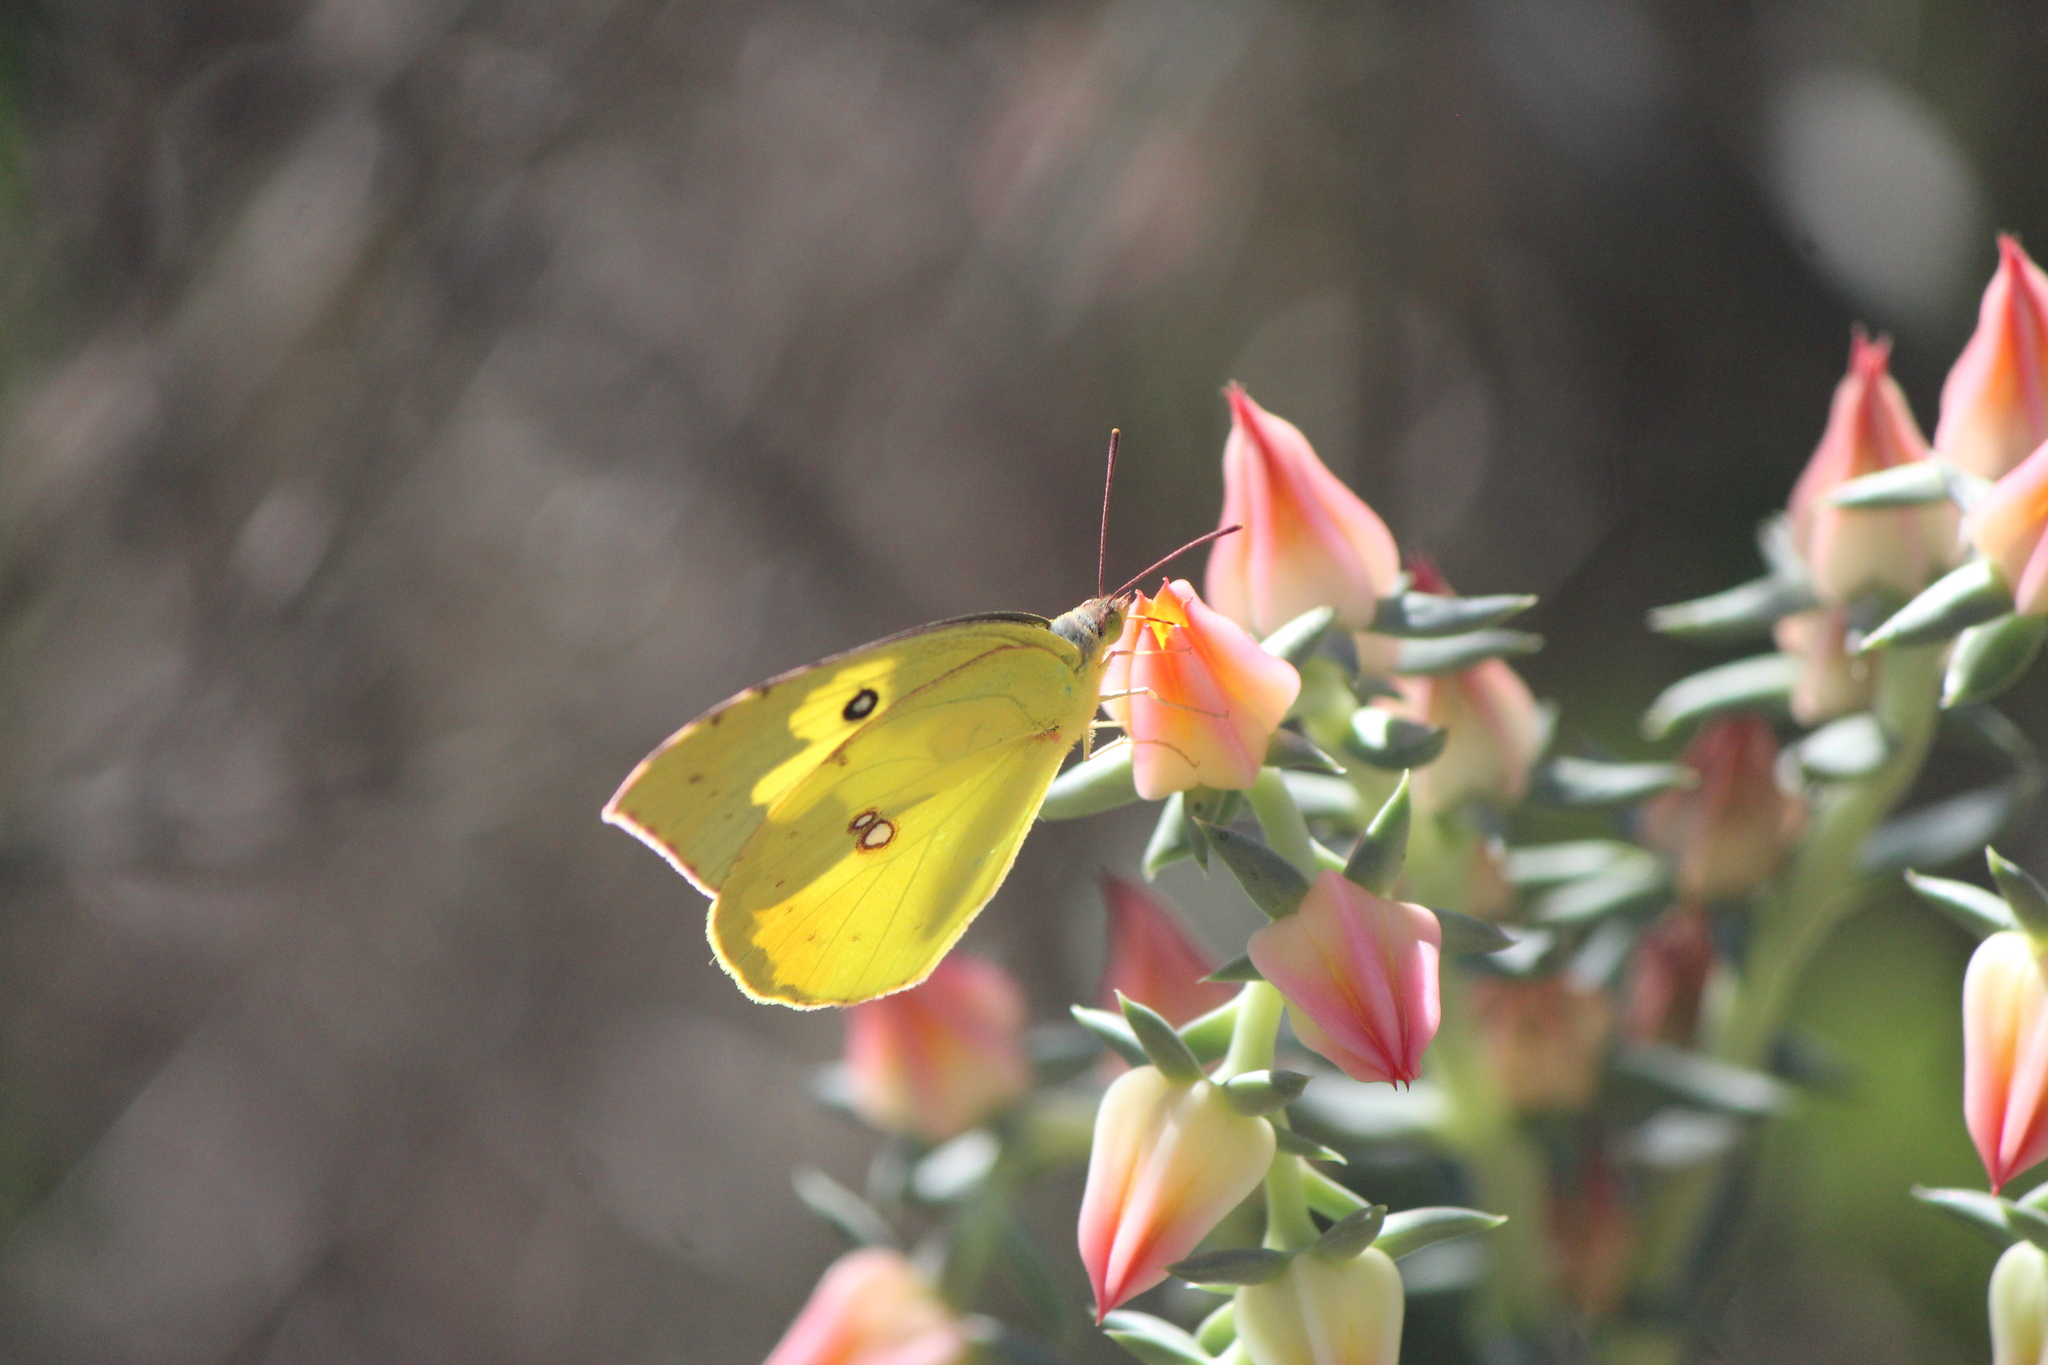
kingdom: Animalia
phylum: Arthropoda
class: Insecta
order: Lepidoptera
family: Pieridae
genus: Zerene
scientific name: Zerene cesonia
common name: Southern dogface
